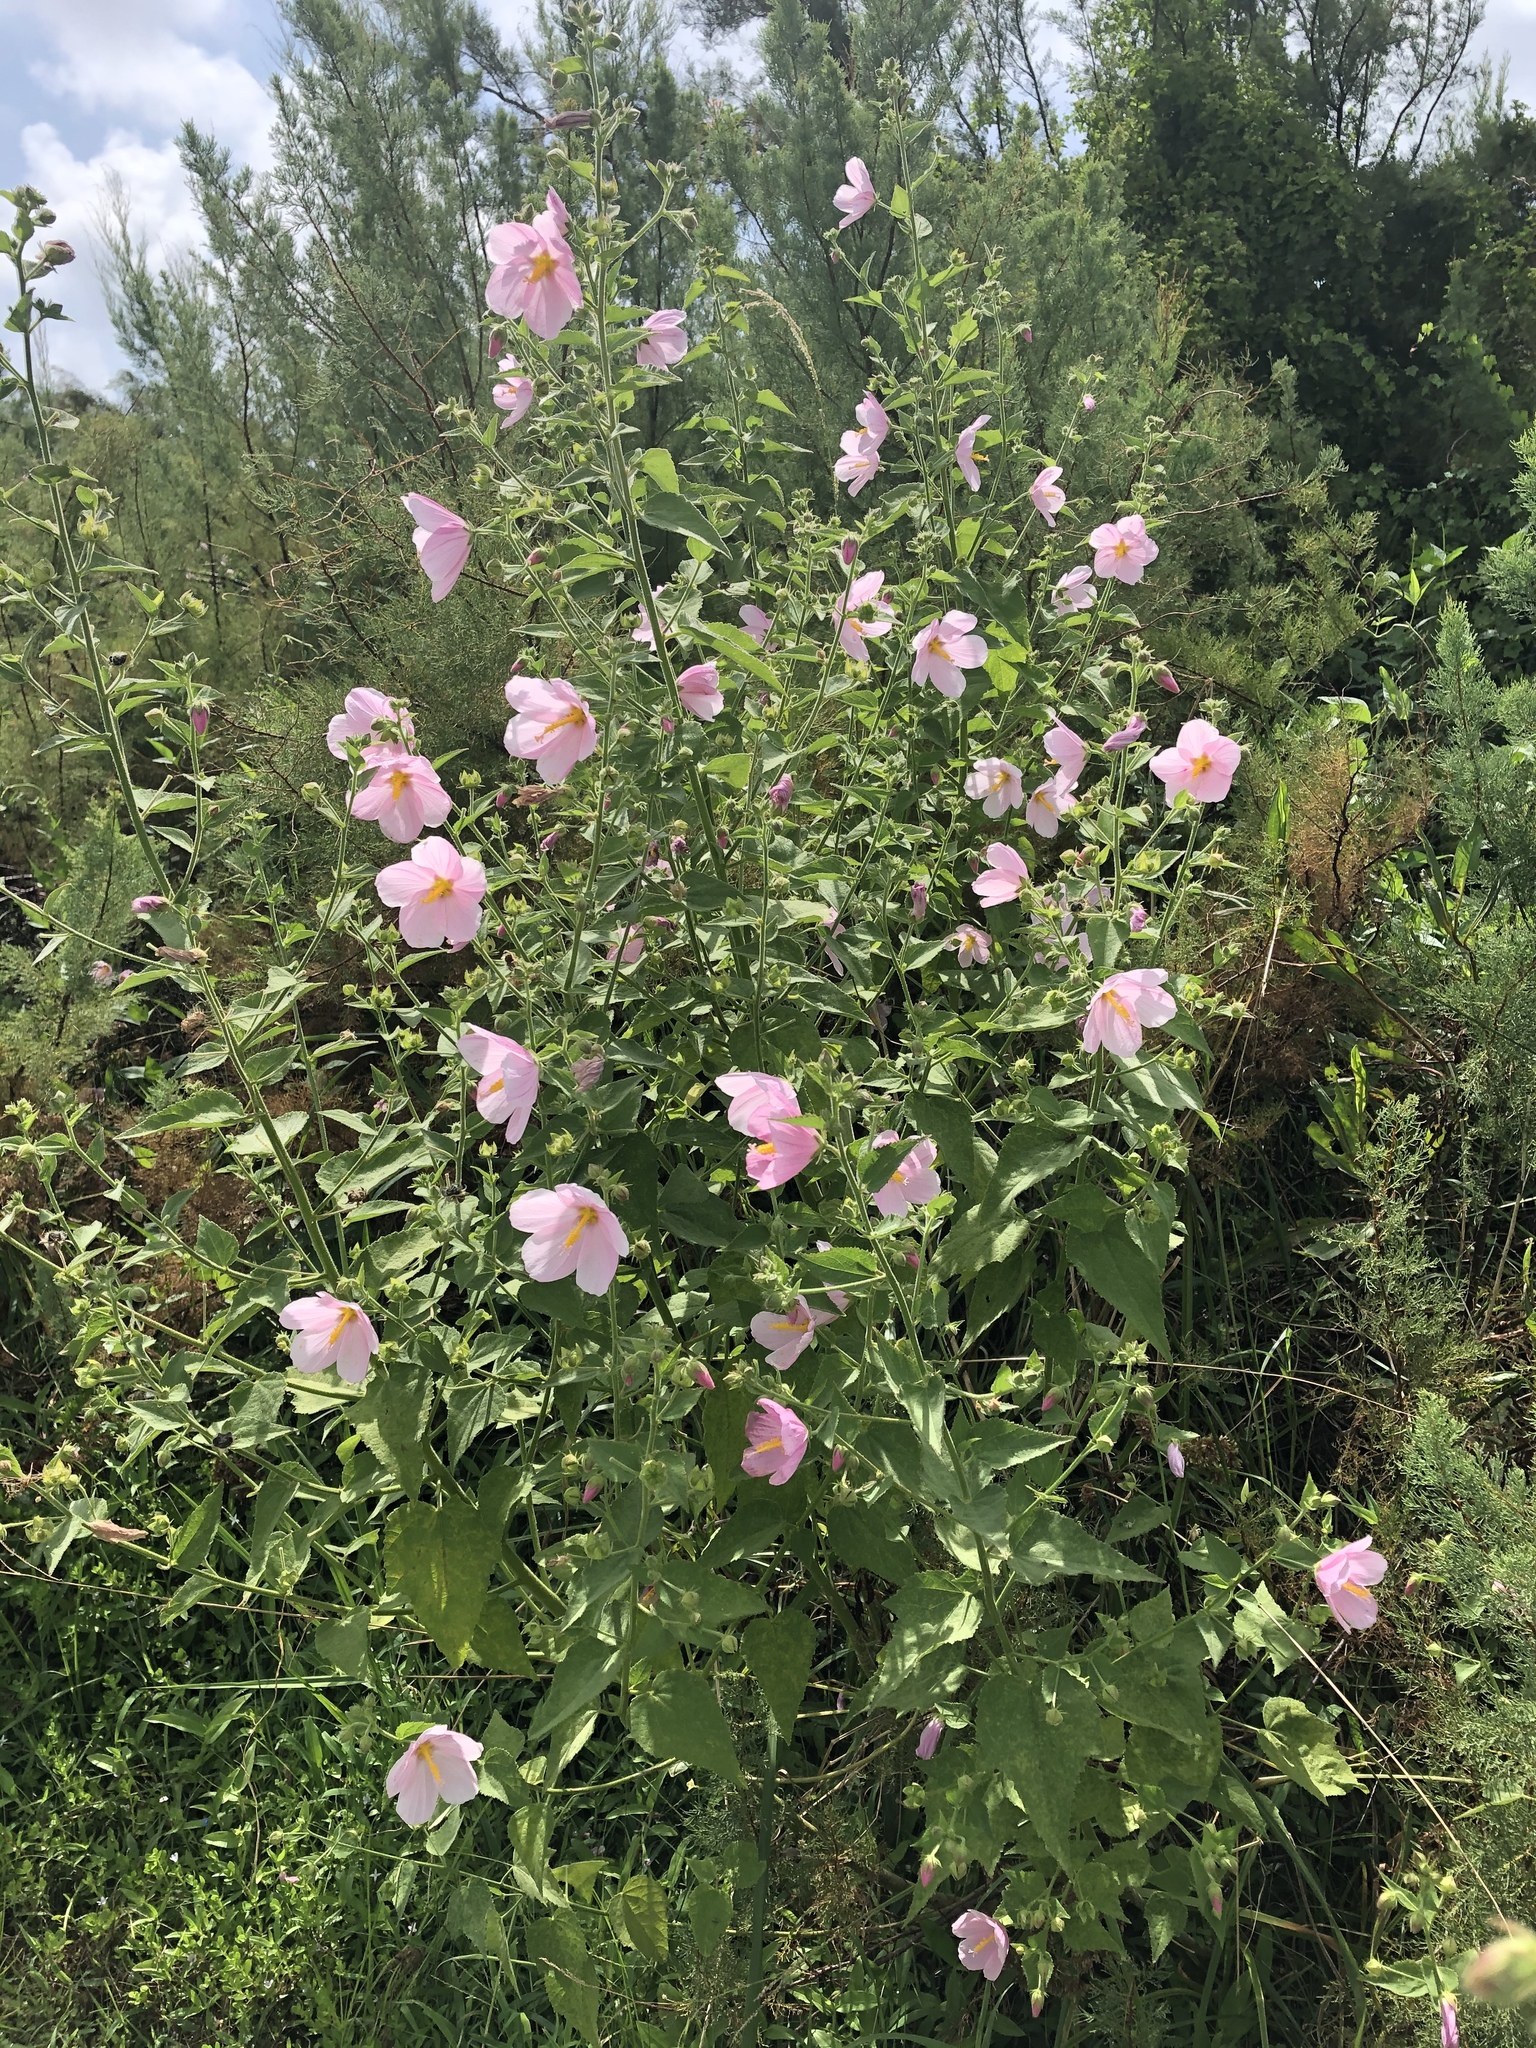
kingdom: Plantae
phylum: Tracheophyta
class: Magnoliopsida
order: Malvales
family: Malvaceae
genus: Kosteletzkya
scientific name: Kosteletzkya pentacarpos
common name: Virginia saltmarsh mallow
